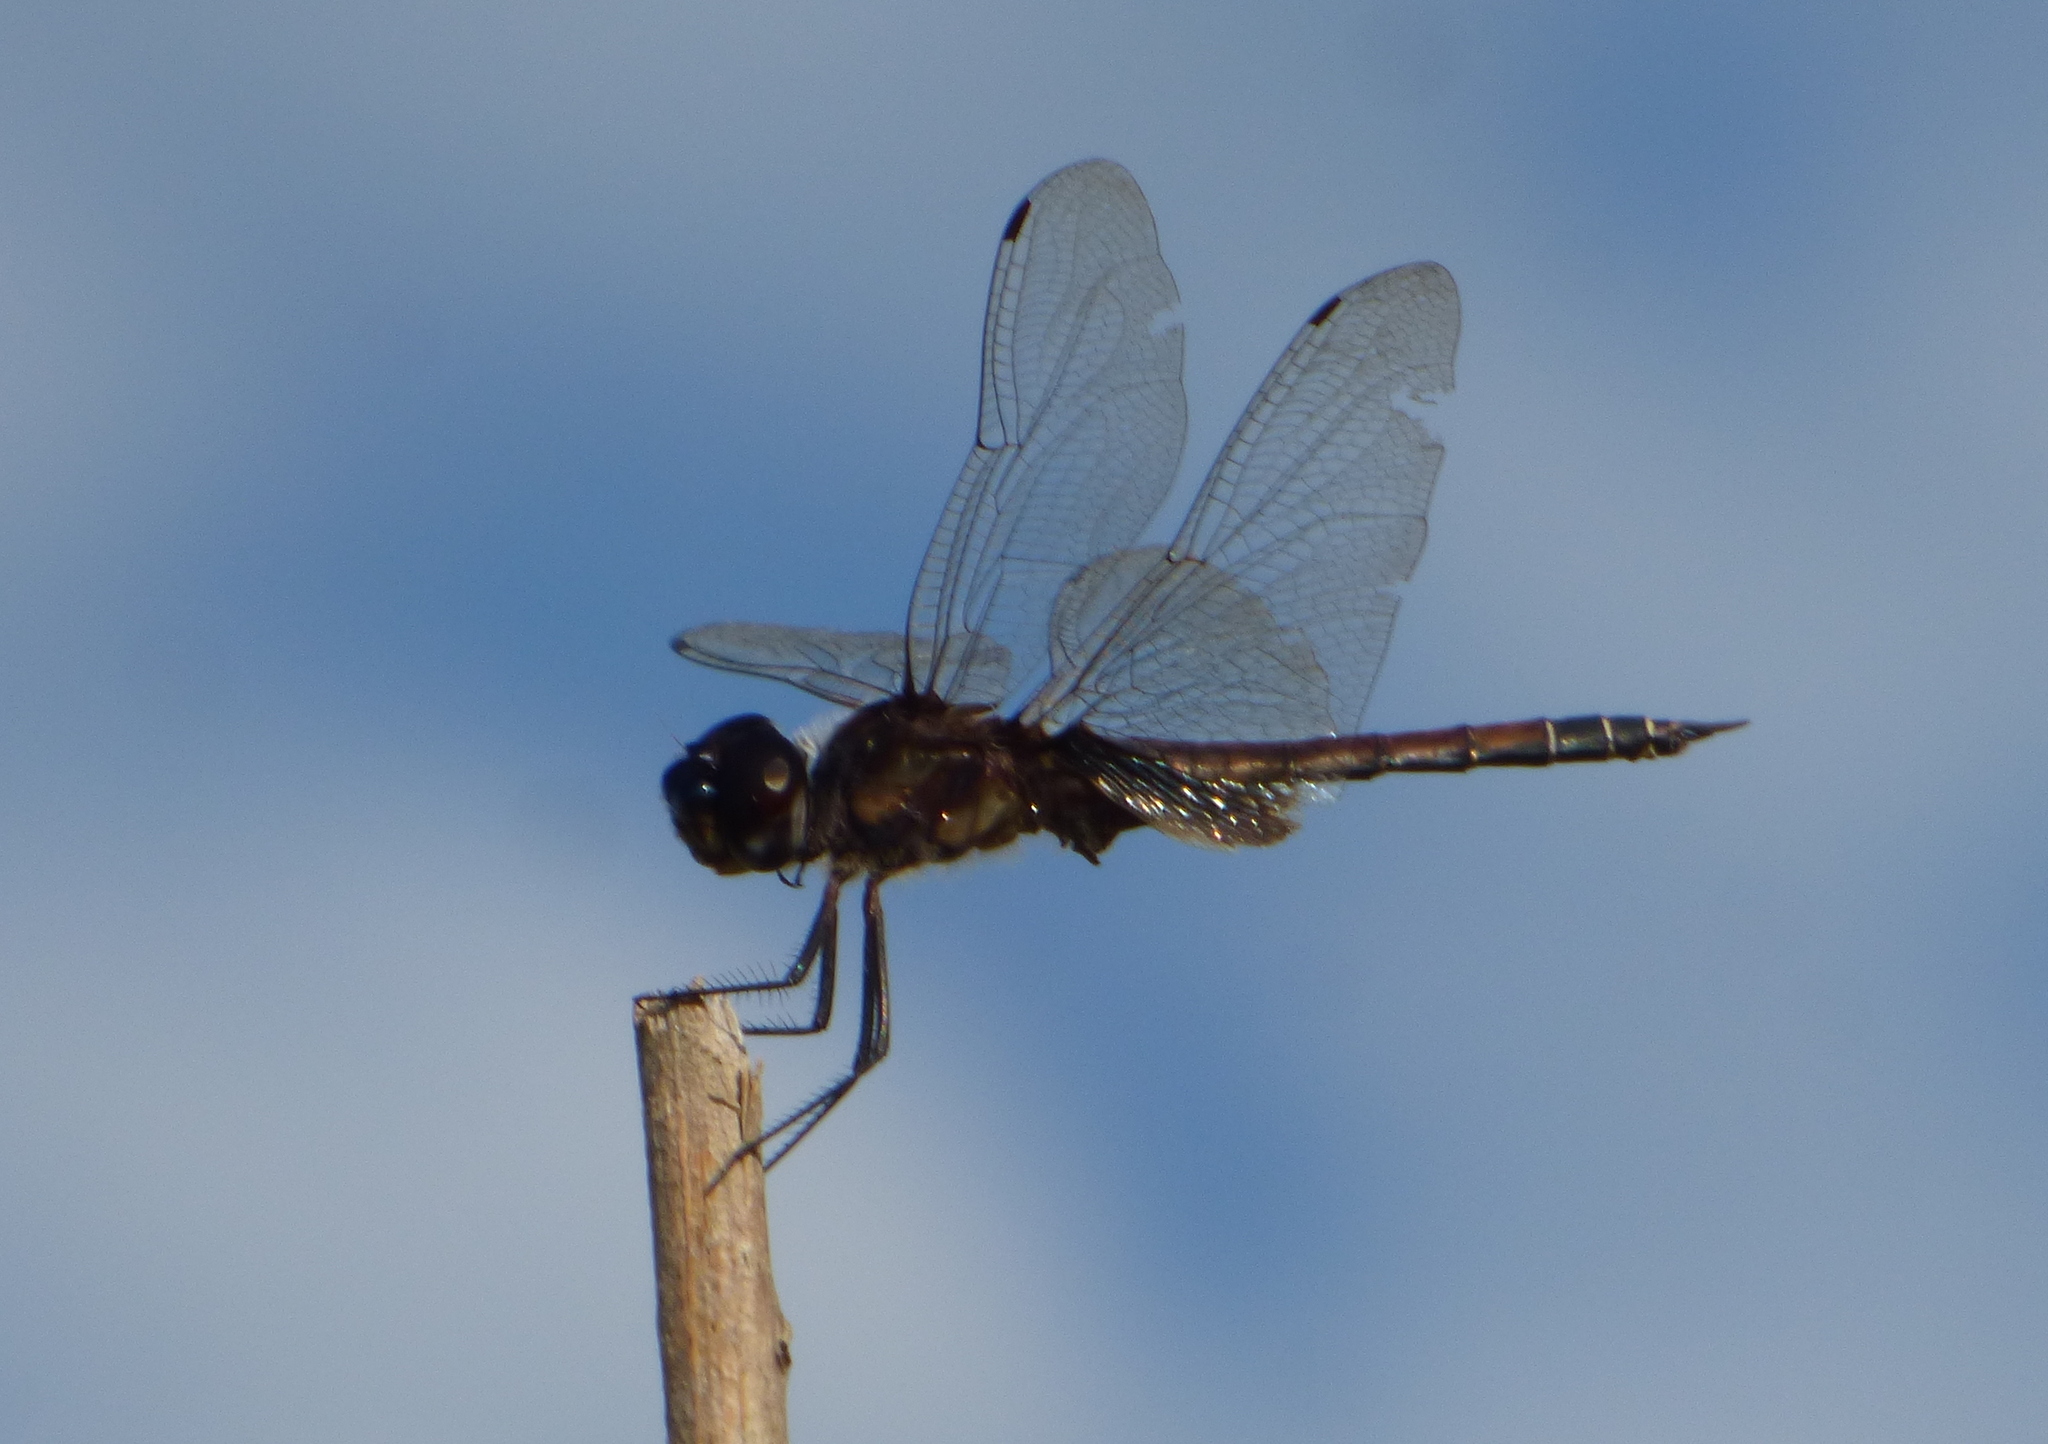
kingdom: Animalia
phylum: Arthropoda
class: Insecta
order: Odonata
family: Libellulidae
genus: Tramea
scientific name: Tramea cophysa
